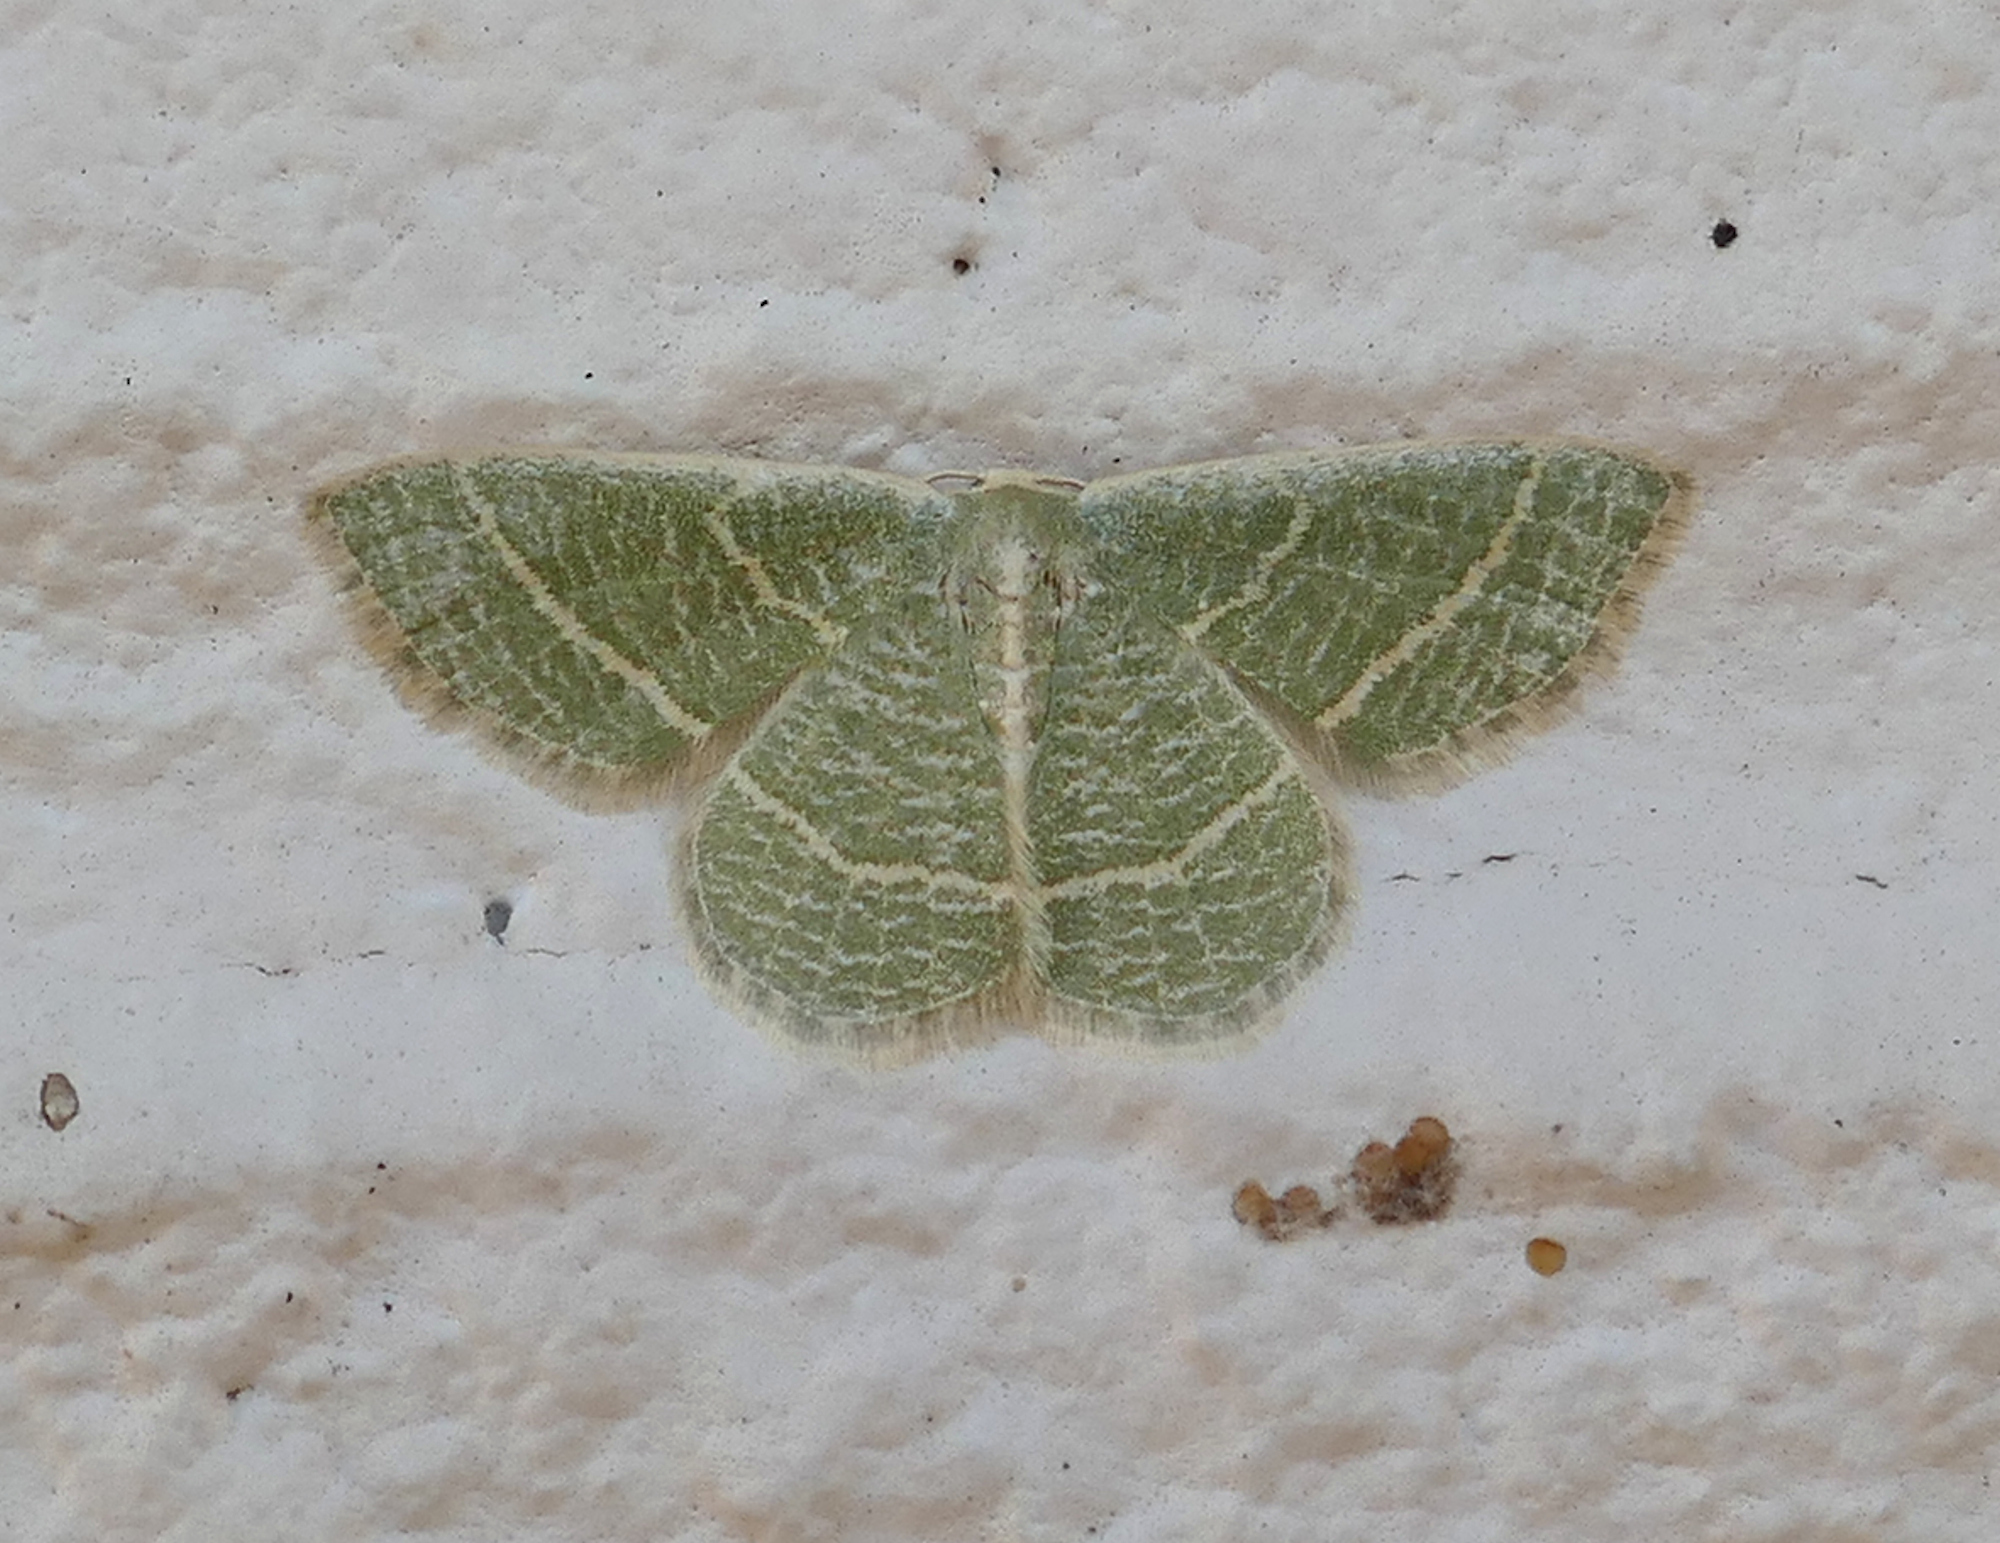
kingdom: Animalia
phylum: Arthropoda
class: Insecta
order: Lepidoptera
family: Geometridae
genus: Chlorochlamys
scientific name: Chlorochlamys chloroleucaria
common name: Blackberry looper
